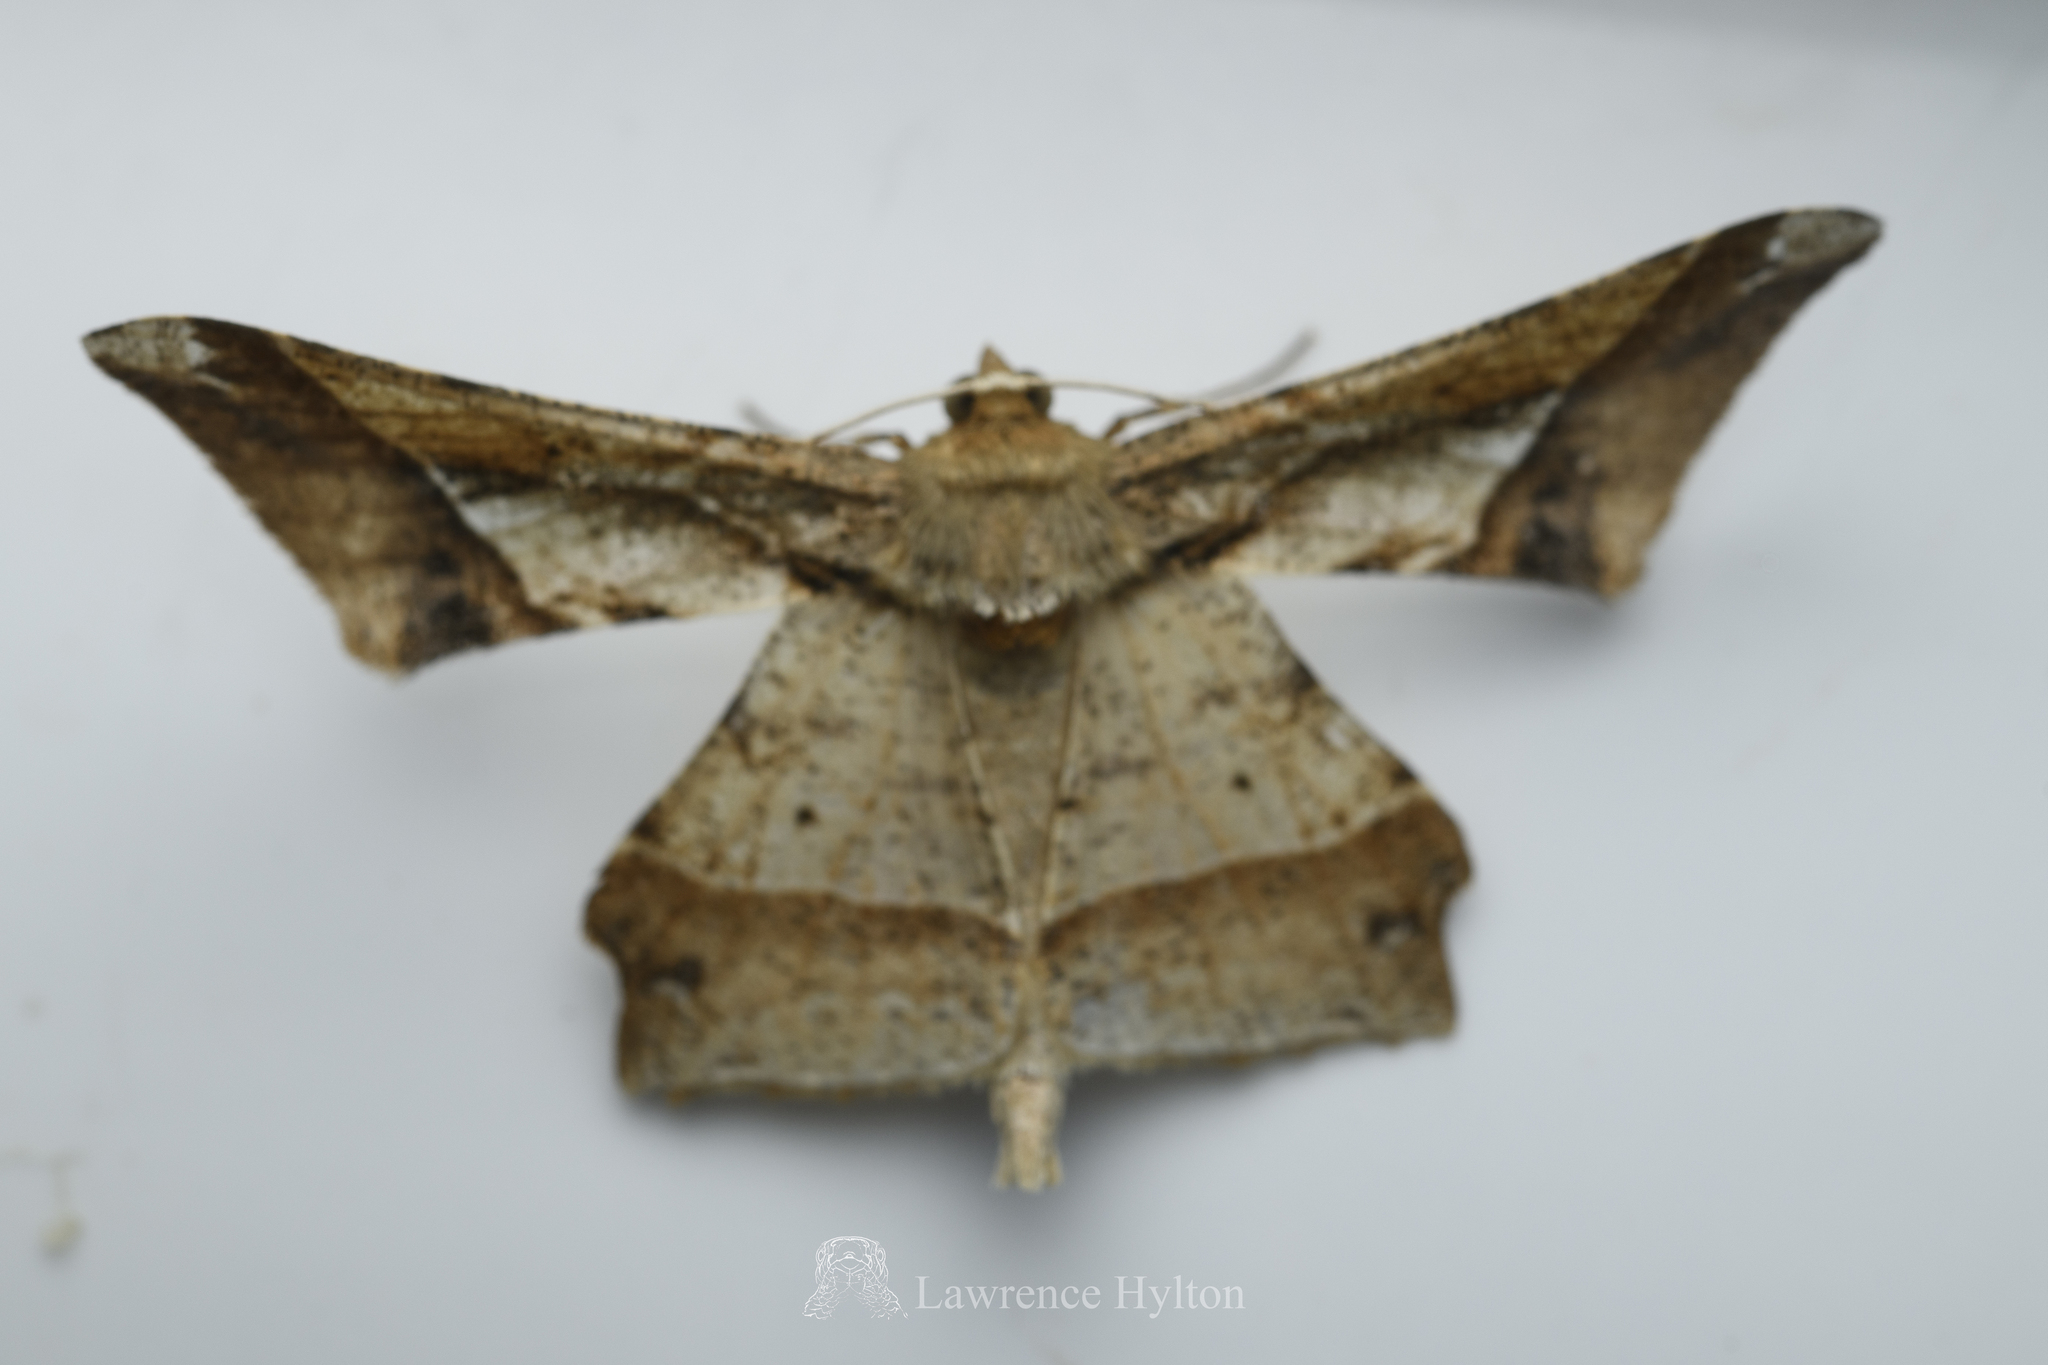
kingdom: Animalia
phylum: Arthropoda
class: Insecta
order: Lepidoptera
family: Geometridae
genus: Krananda
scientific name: Krananda latimarginaria
